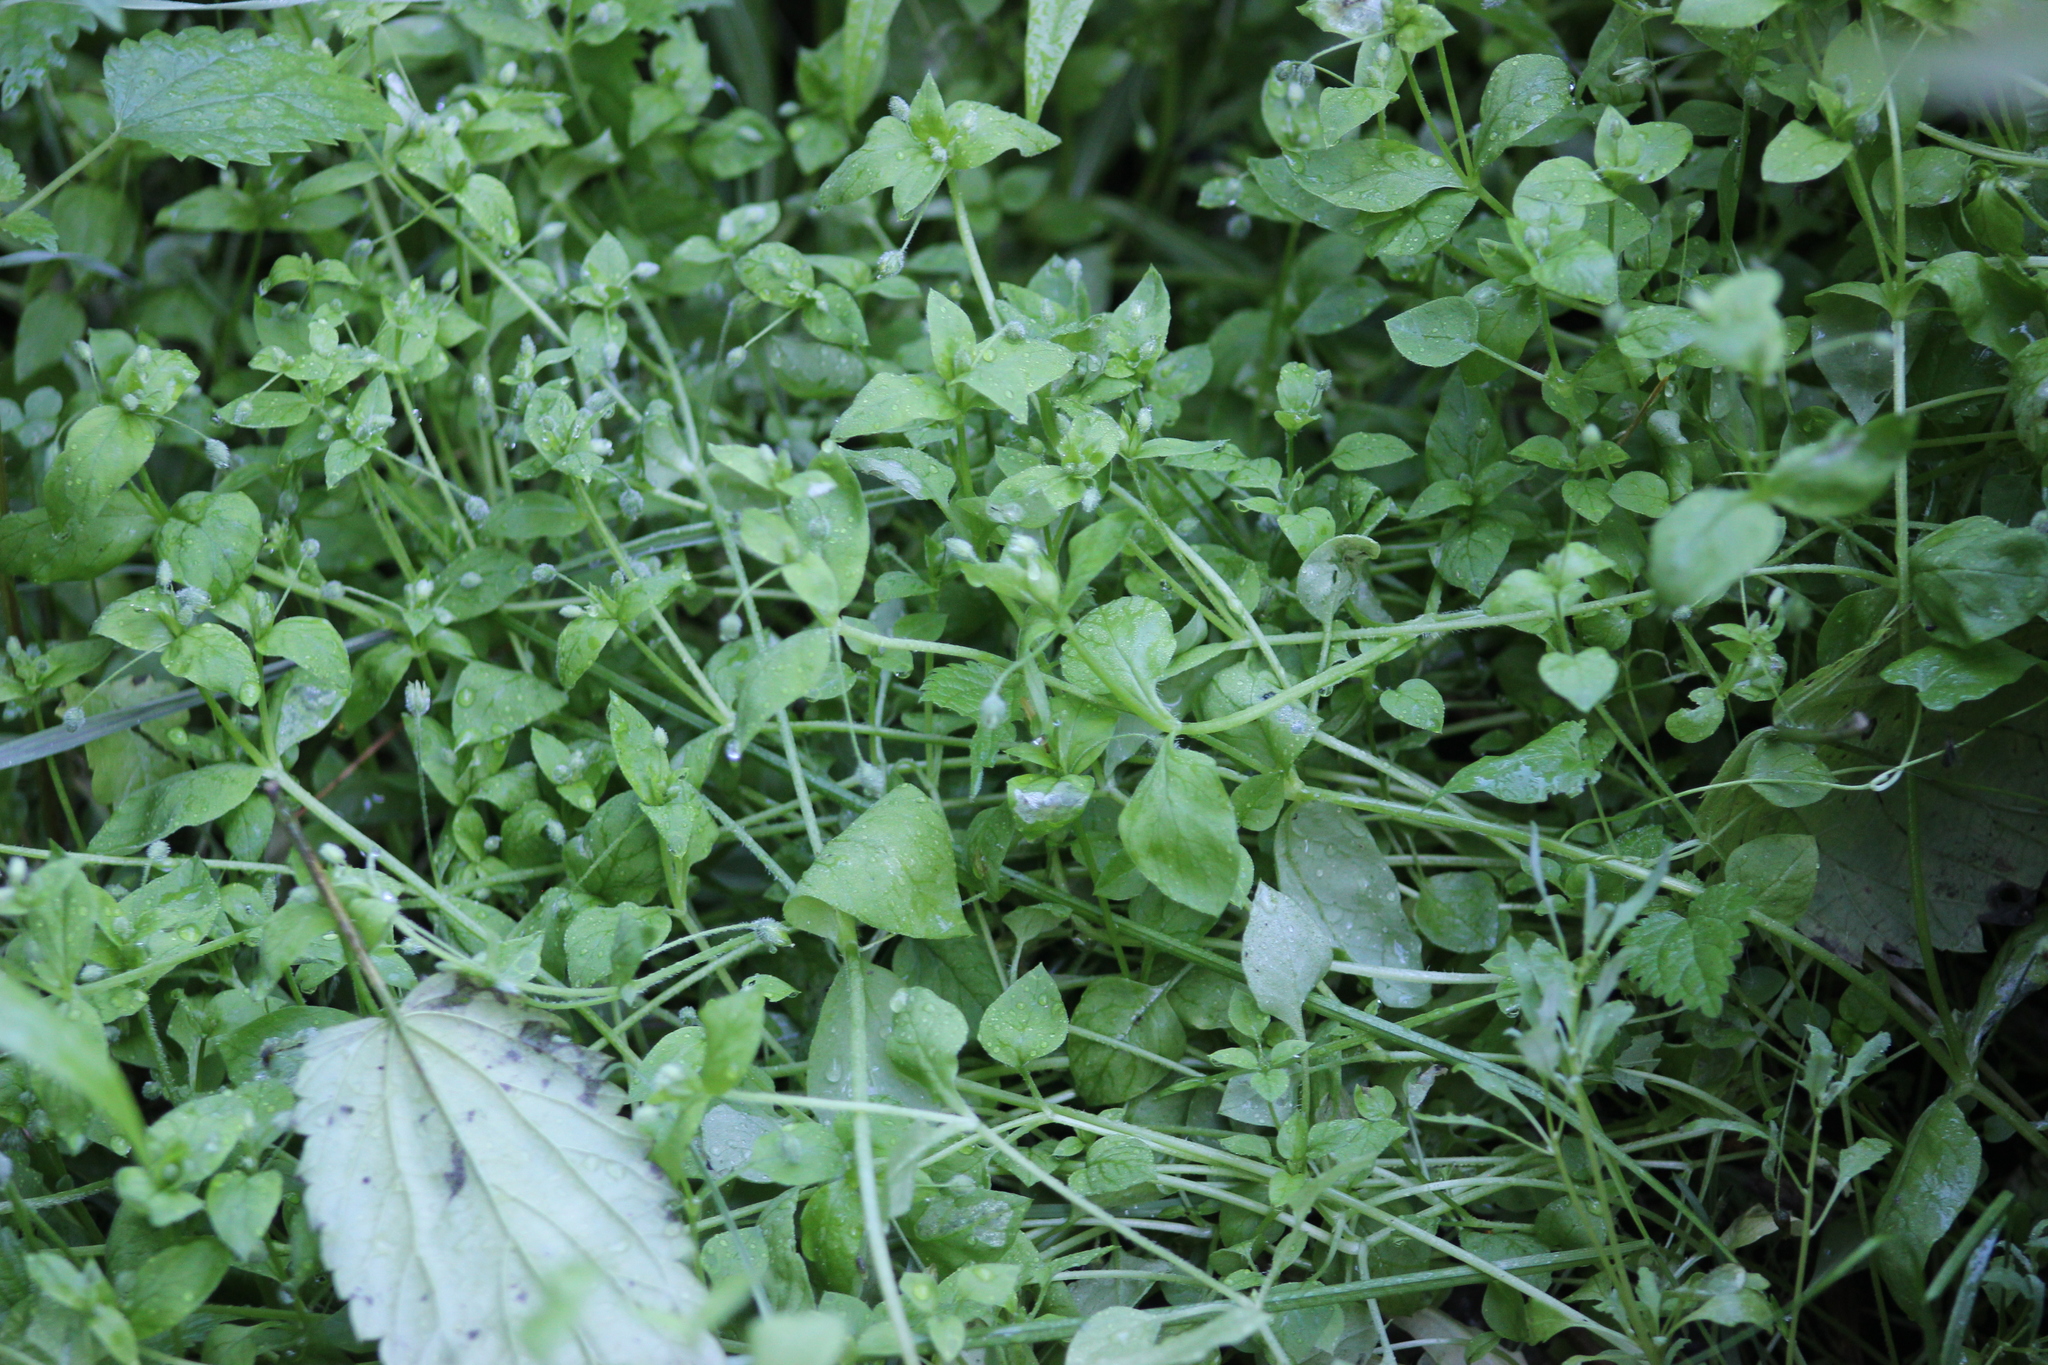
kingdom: Plantae
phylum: Tracheophyta
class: Magnoliopsida
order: Caryophyllales
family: Caryophyllaceae
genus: Stellaria
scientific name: Stellaria media
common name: Common chickweed
